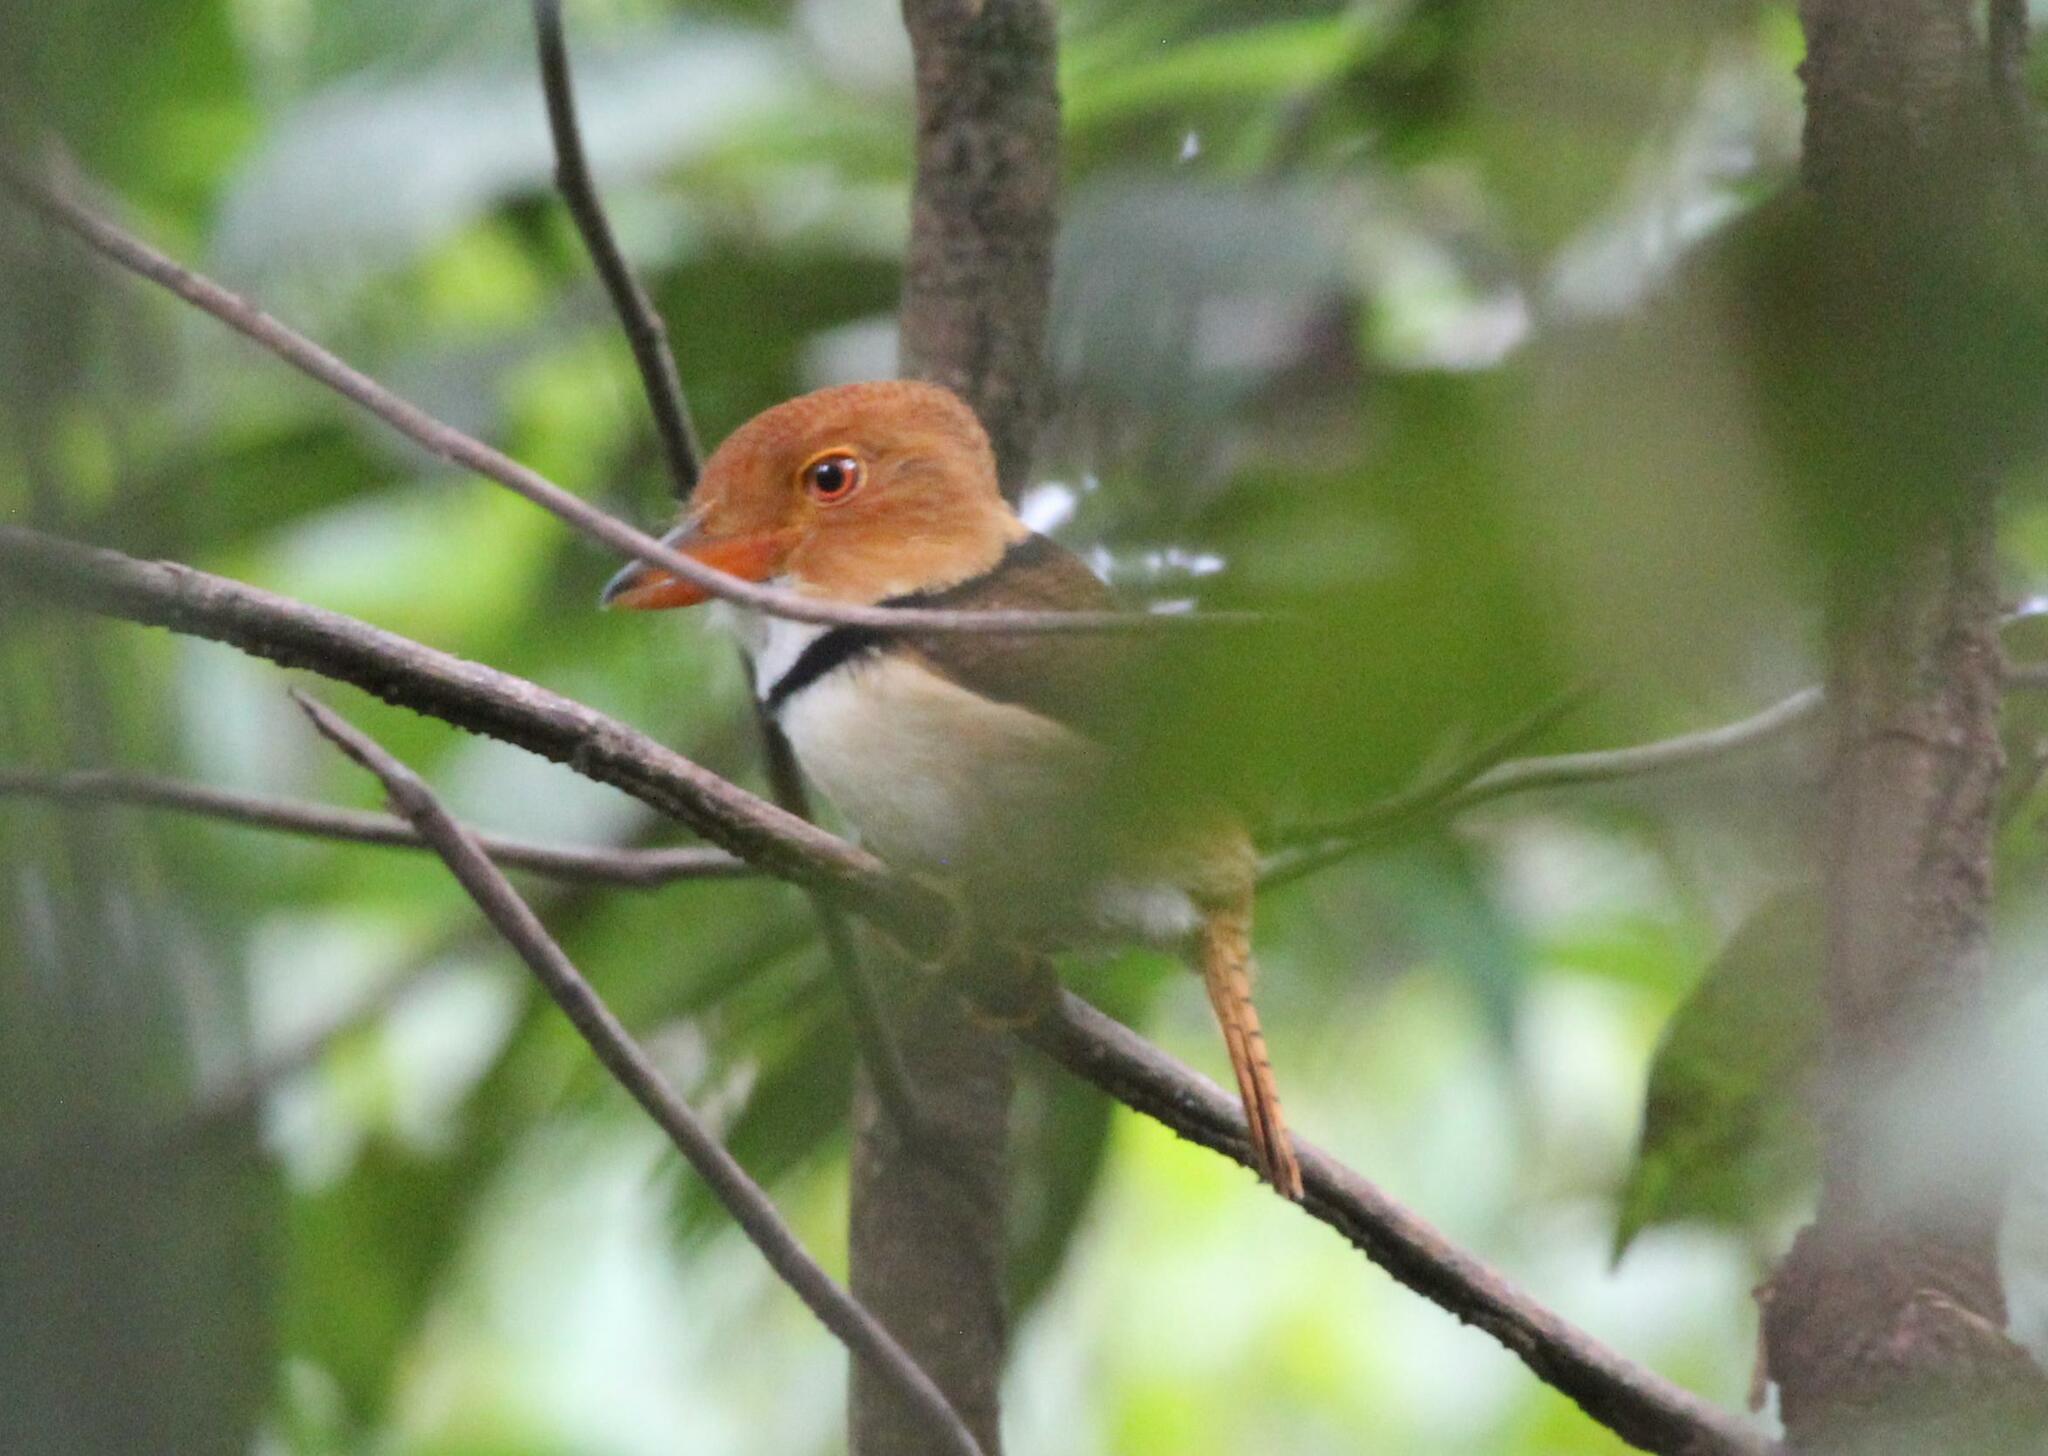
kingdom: Animalia
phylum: Chordata
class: Aves
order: Piciformes
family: Bucconidae
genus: Bucco
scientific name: Bucco capensis
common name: Collared puffbird
